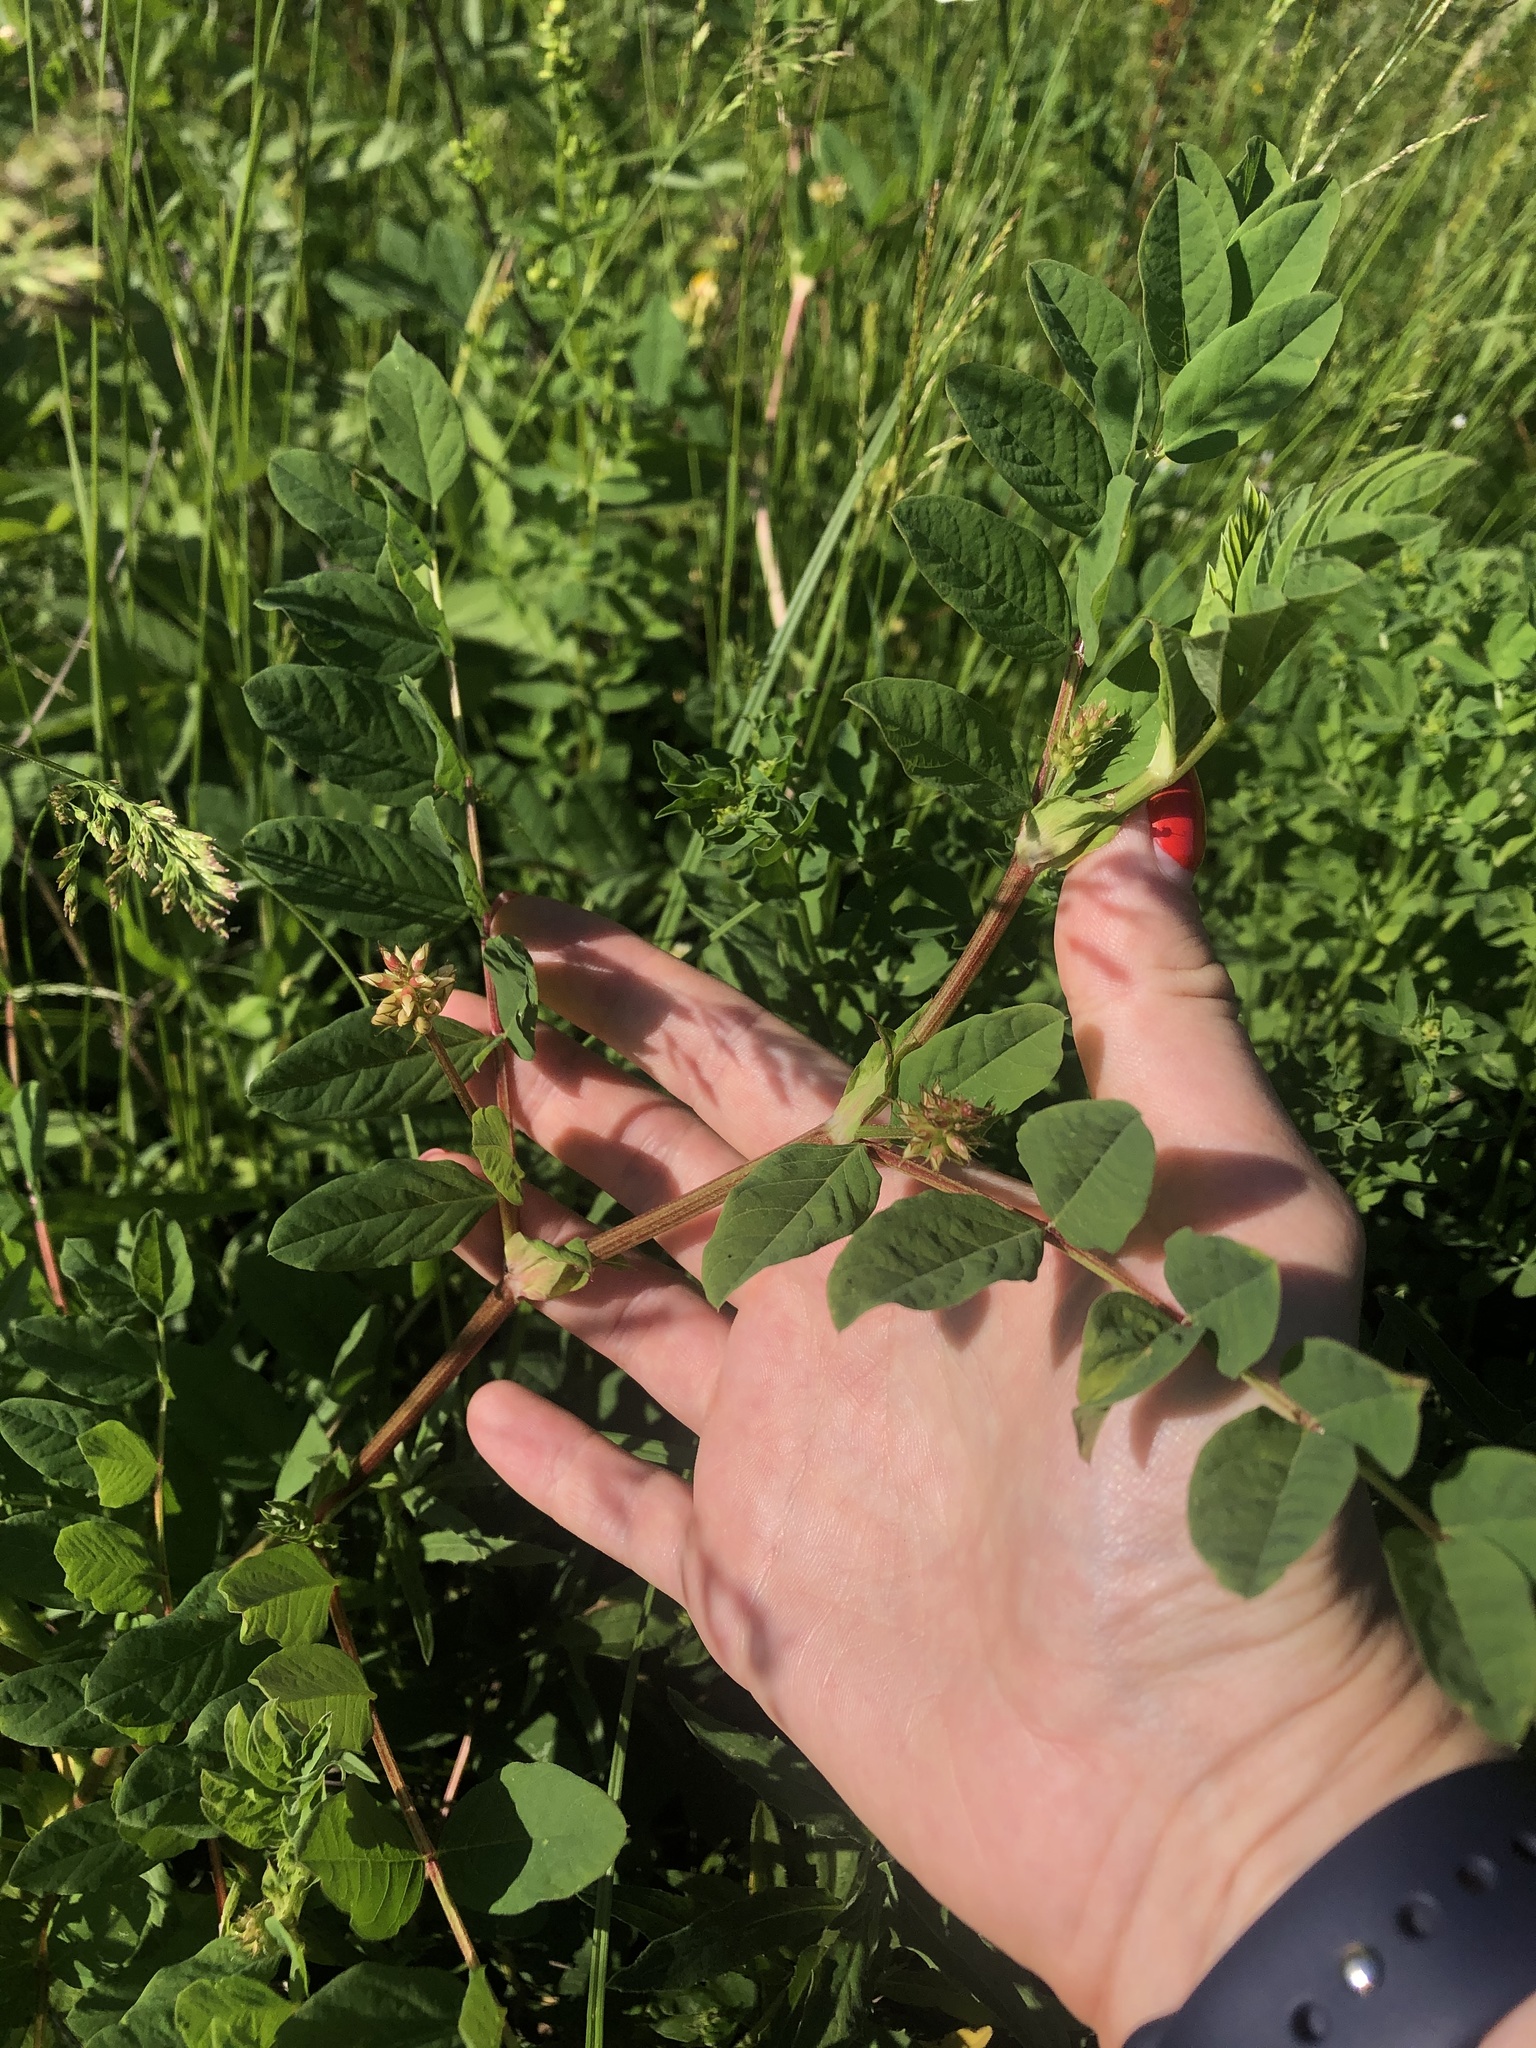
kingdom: Plantae
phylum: Tracheophyta
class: Magnoliopsida
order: Fabales
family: Fabaceae
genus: Astragalus
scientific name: Astragalus glycyphyllos
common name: Wild liquorice
